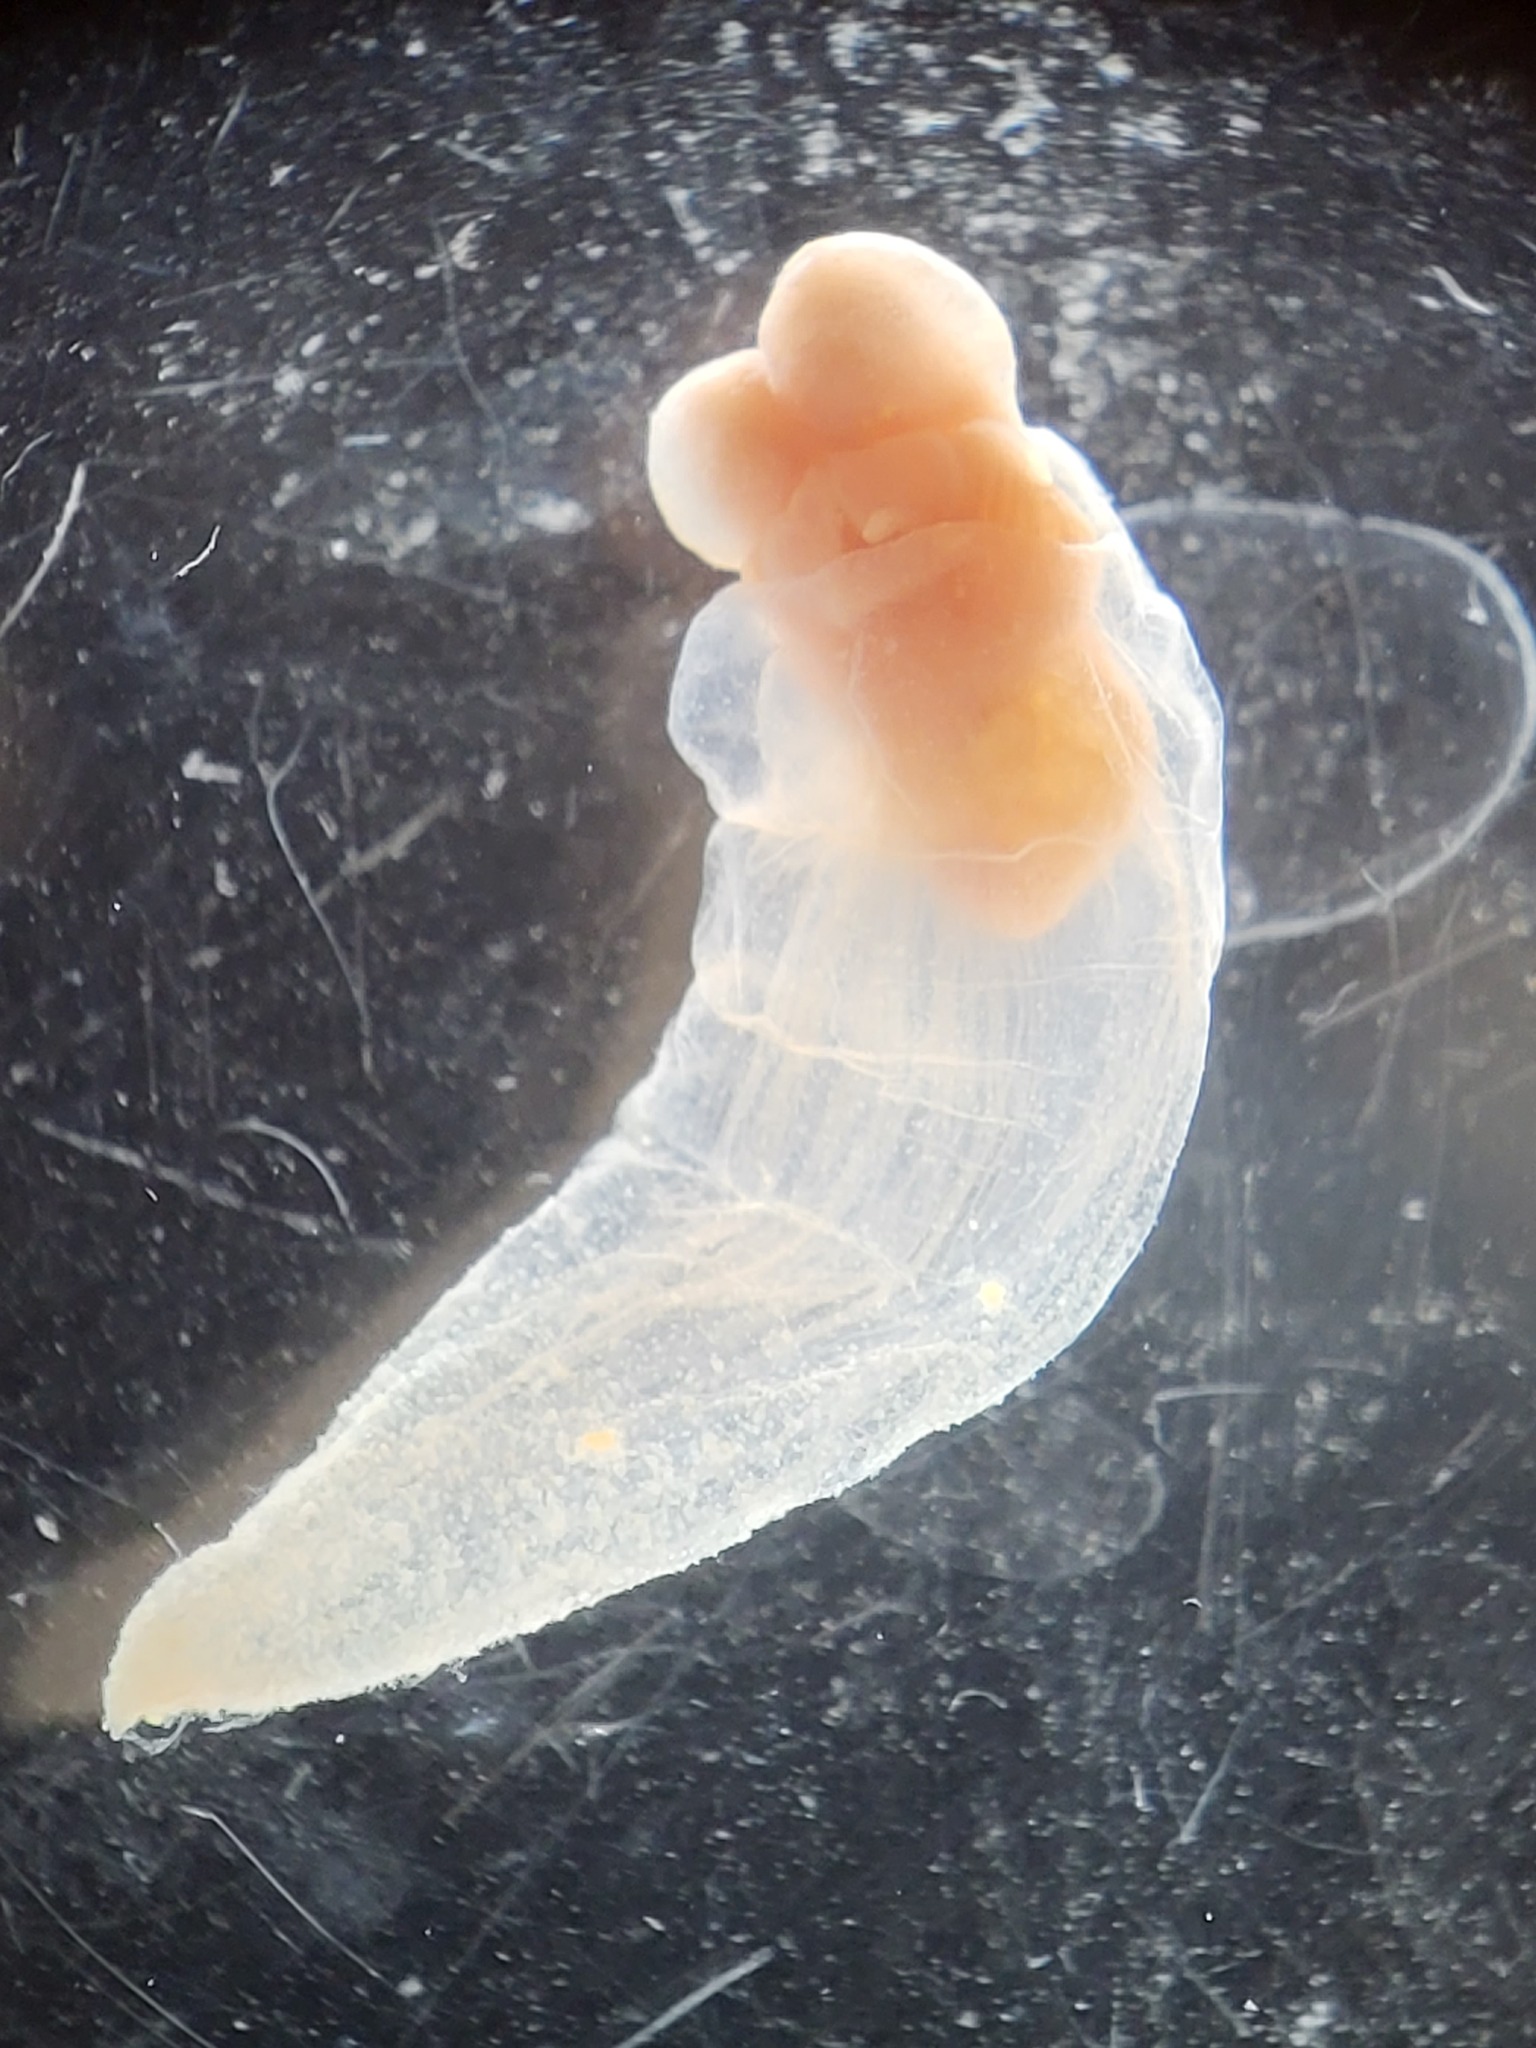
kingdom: Animalia
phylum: Mollusca
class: Gastropoda
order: Pteropoda
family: Clionidae
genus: Clione
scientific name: Clione limacina
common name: Common clione
